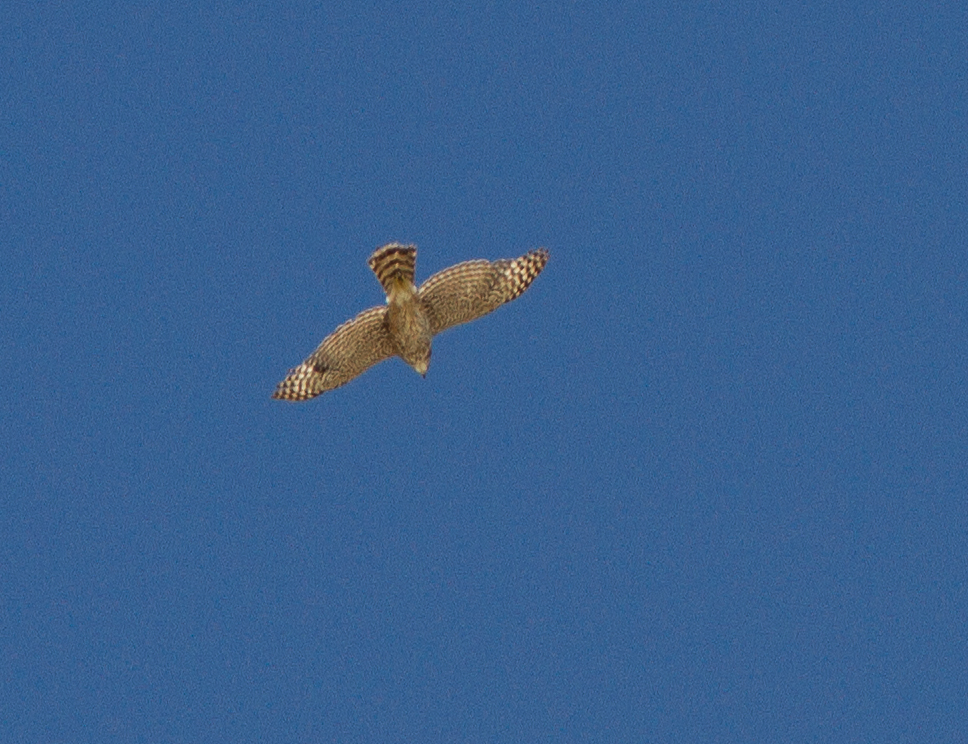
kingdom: Animalia
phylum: Chordata
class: Aves
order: Accipitriformes
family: Accipitridae
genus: Accipiter
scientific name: Accipiter cooperii
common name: Cooper's hawk
